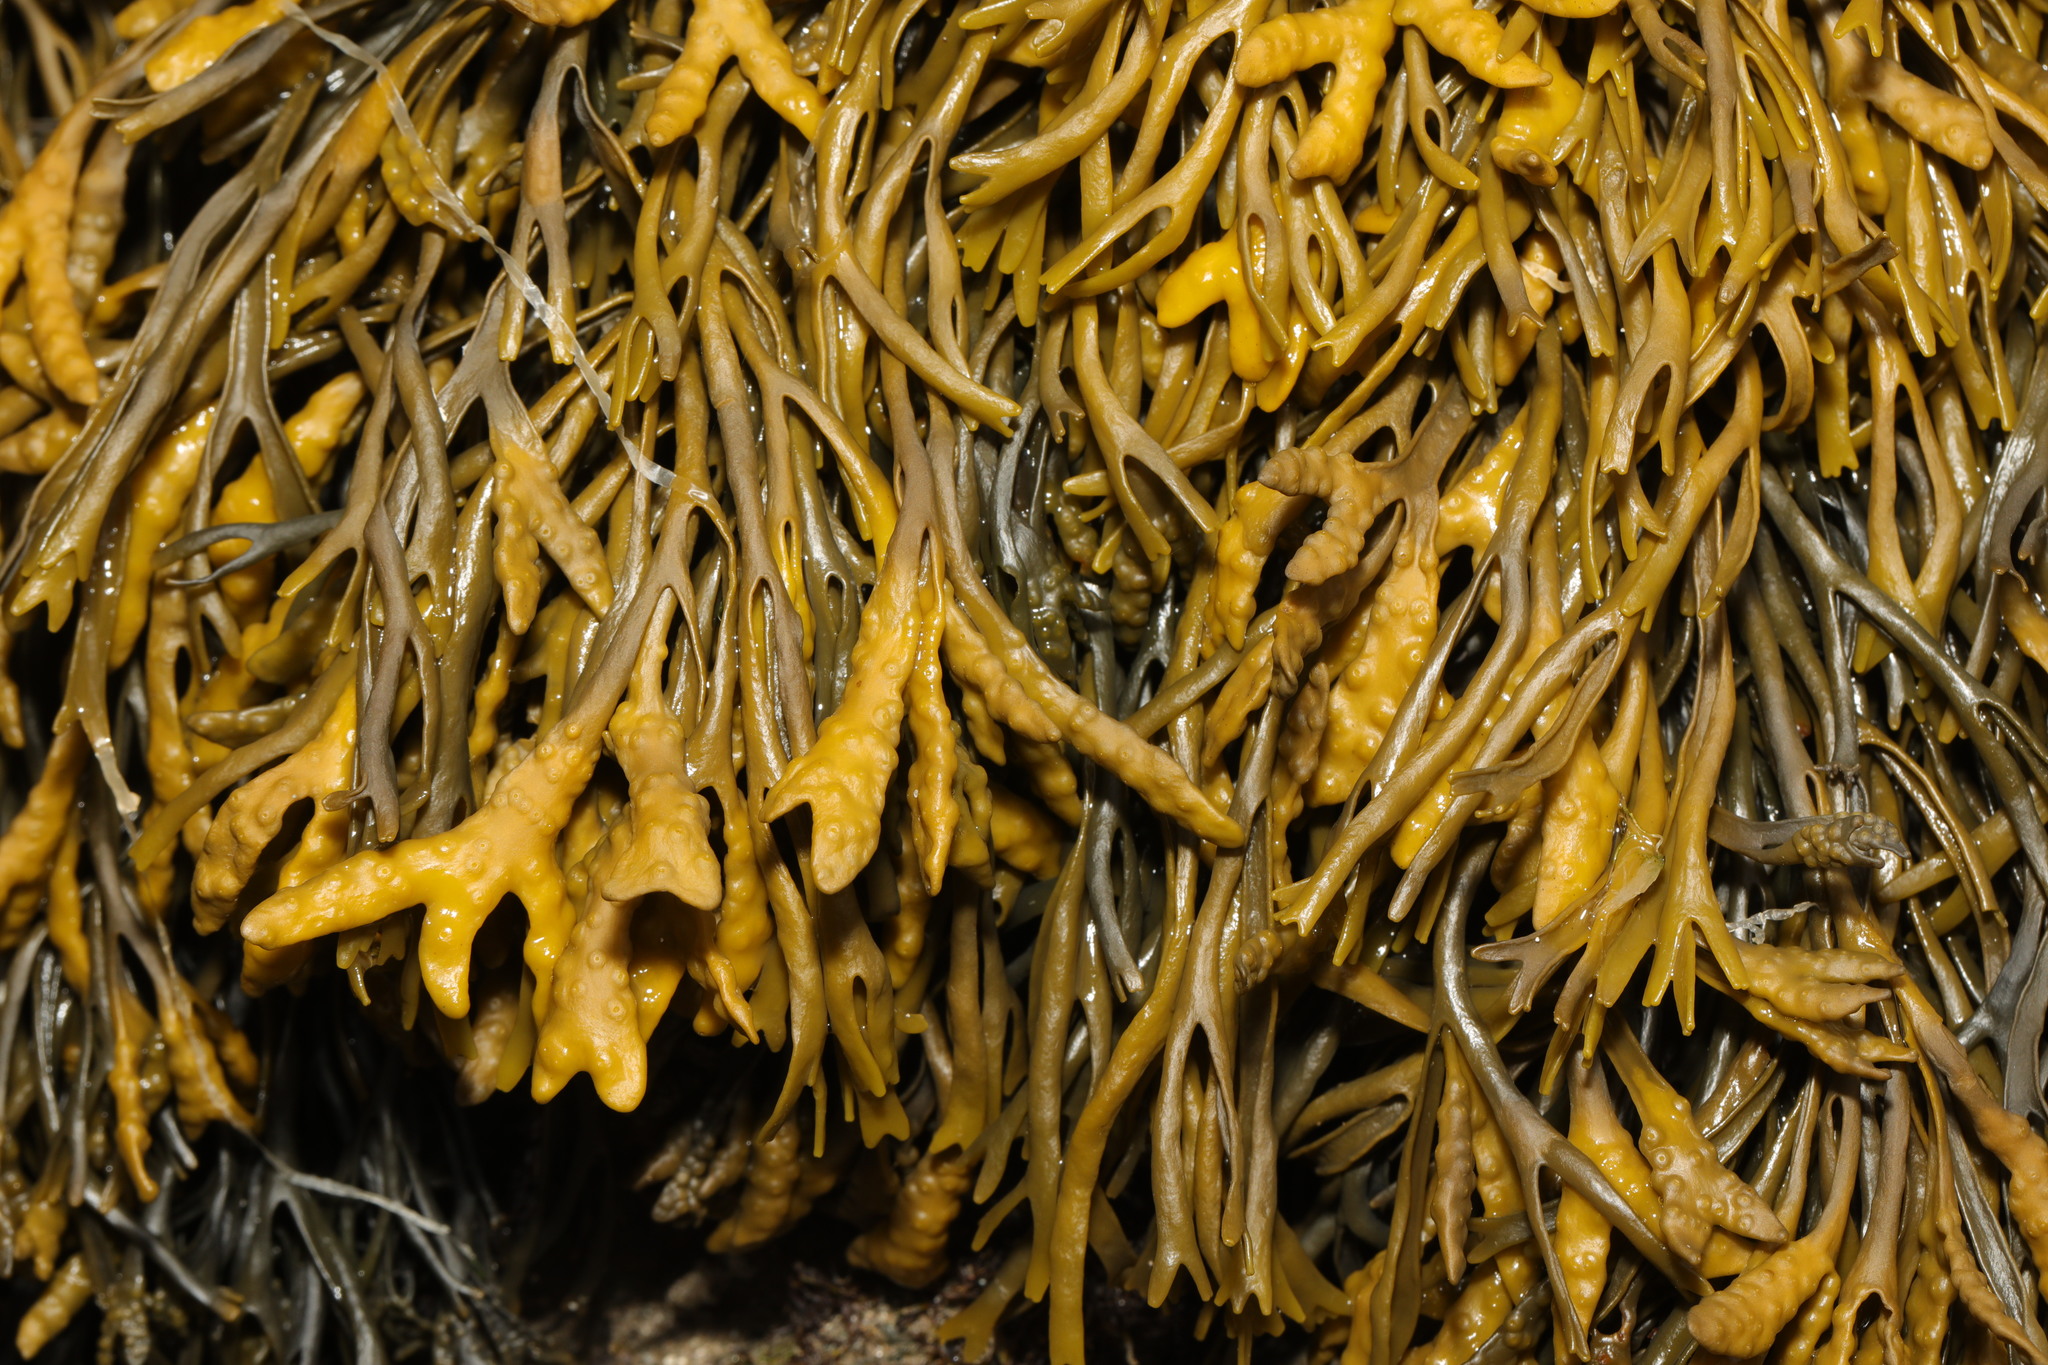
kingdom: Chromista
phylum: Ochrophyta
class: Phaeophyceae
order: Fucales
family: Fucaceae
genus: Pelvetia
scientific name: Pelvetia canaliculata
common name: Channelled wrack
